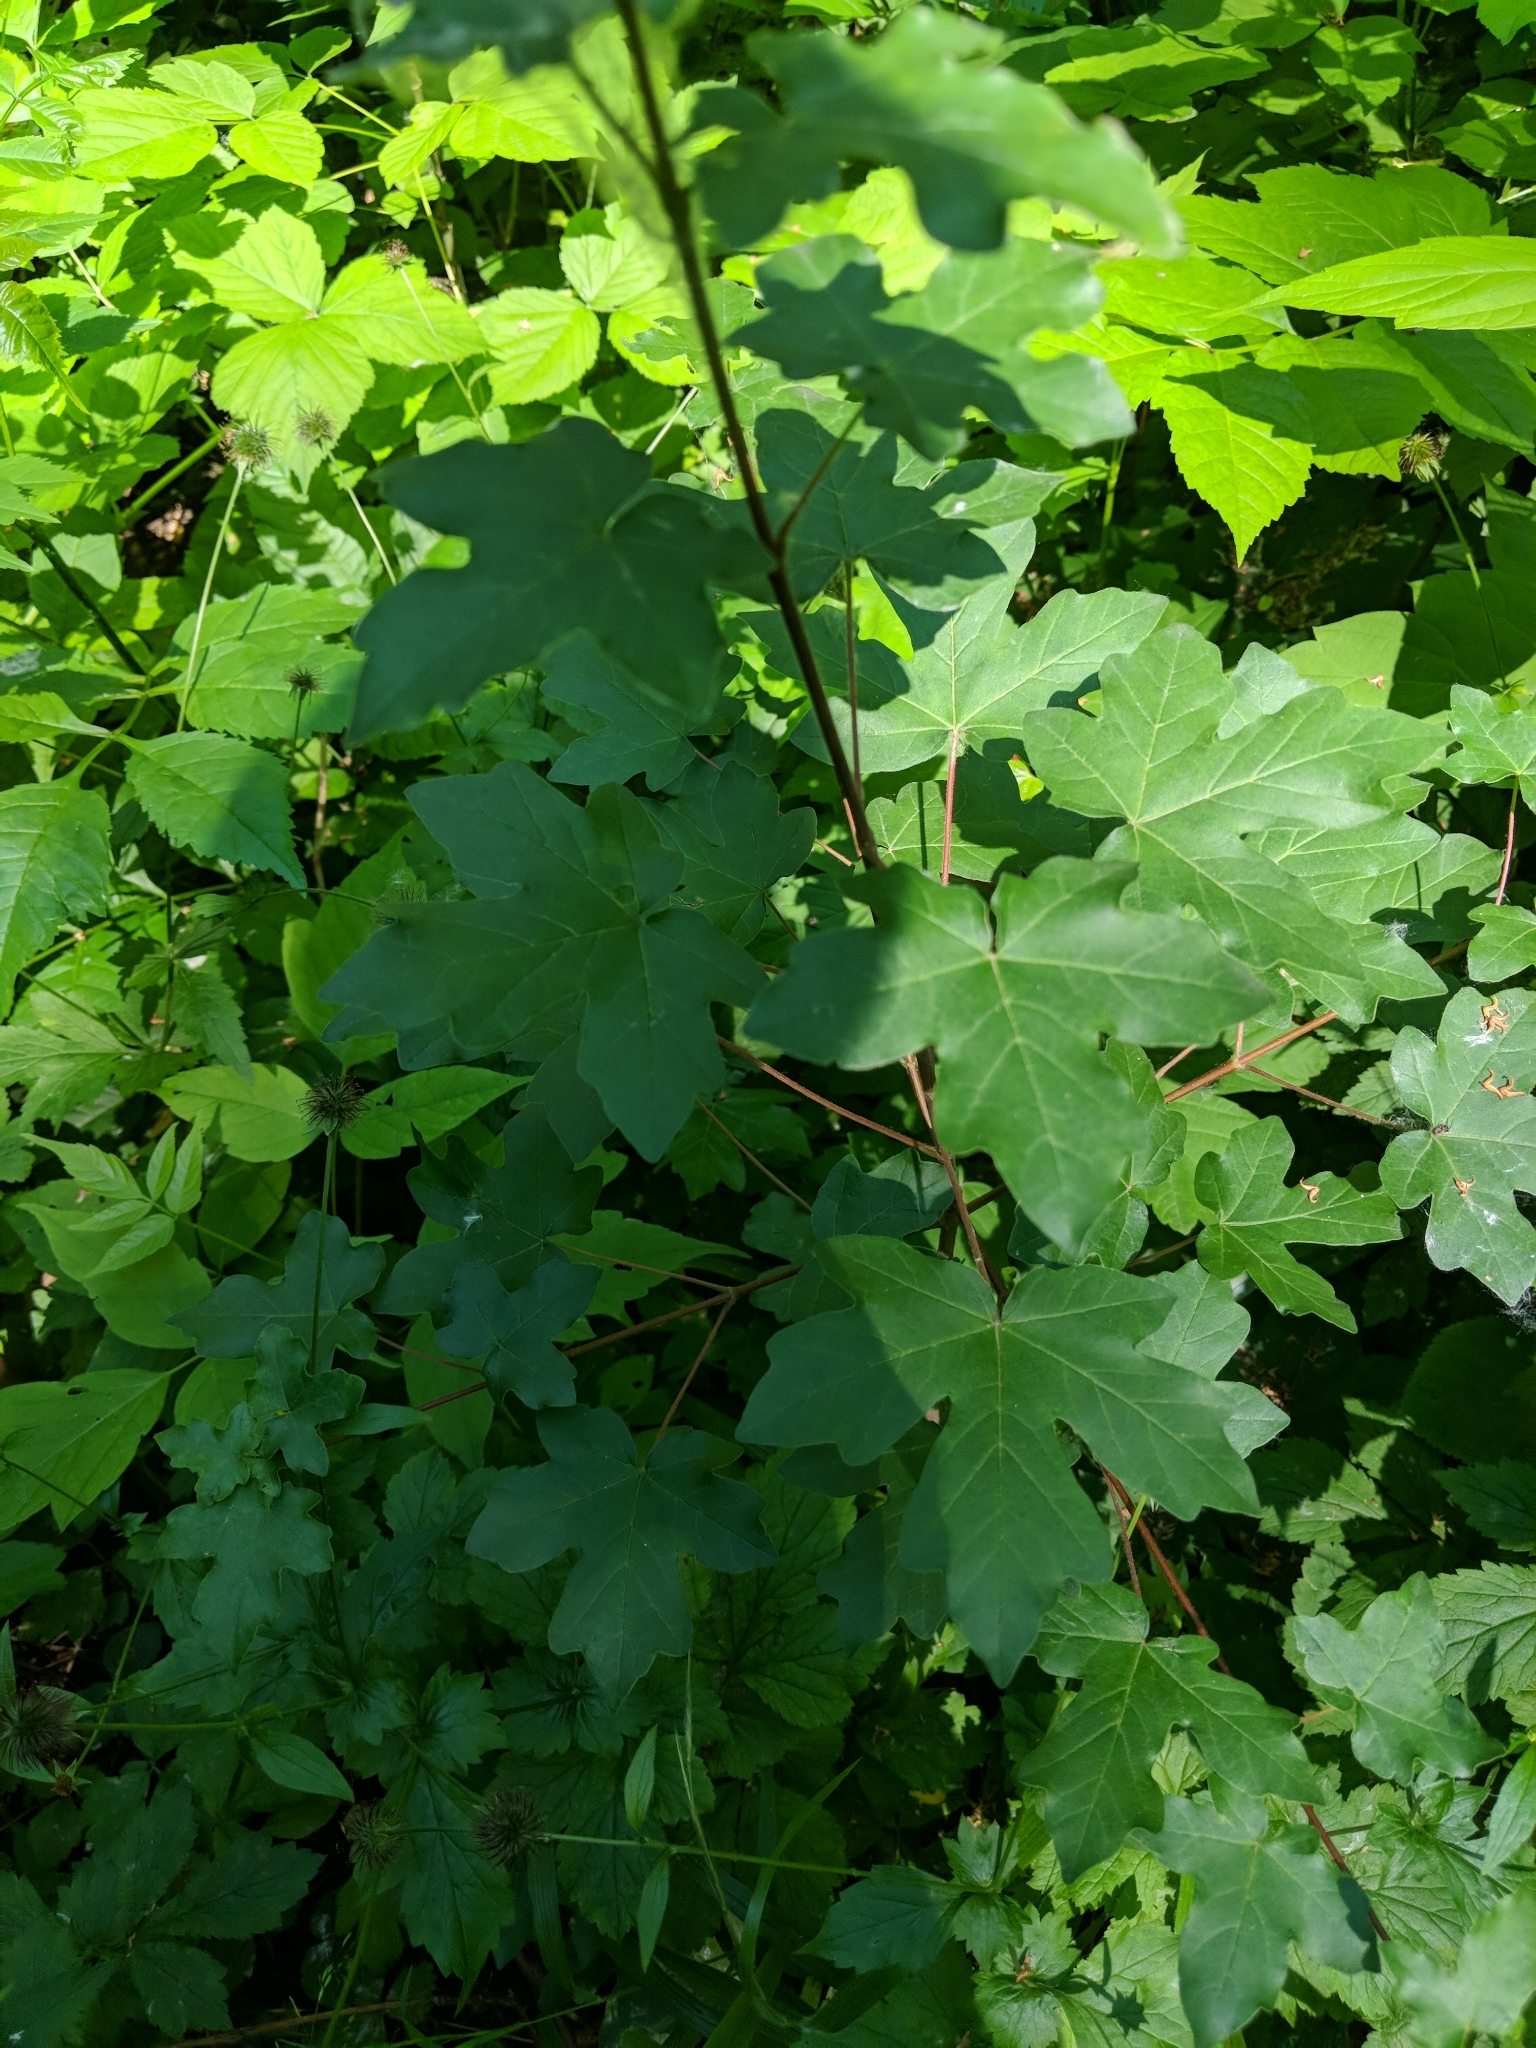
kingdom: Plantae
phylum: Tracheophyta
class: Magnoliopsida
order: Sapindales
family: Sapindaceae
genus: Acer
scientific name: Acer campestre
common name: Field maple
